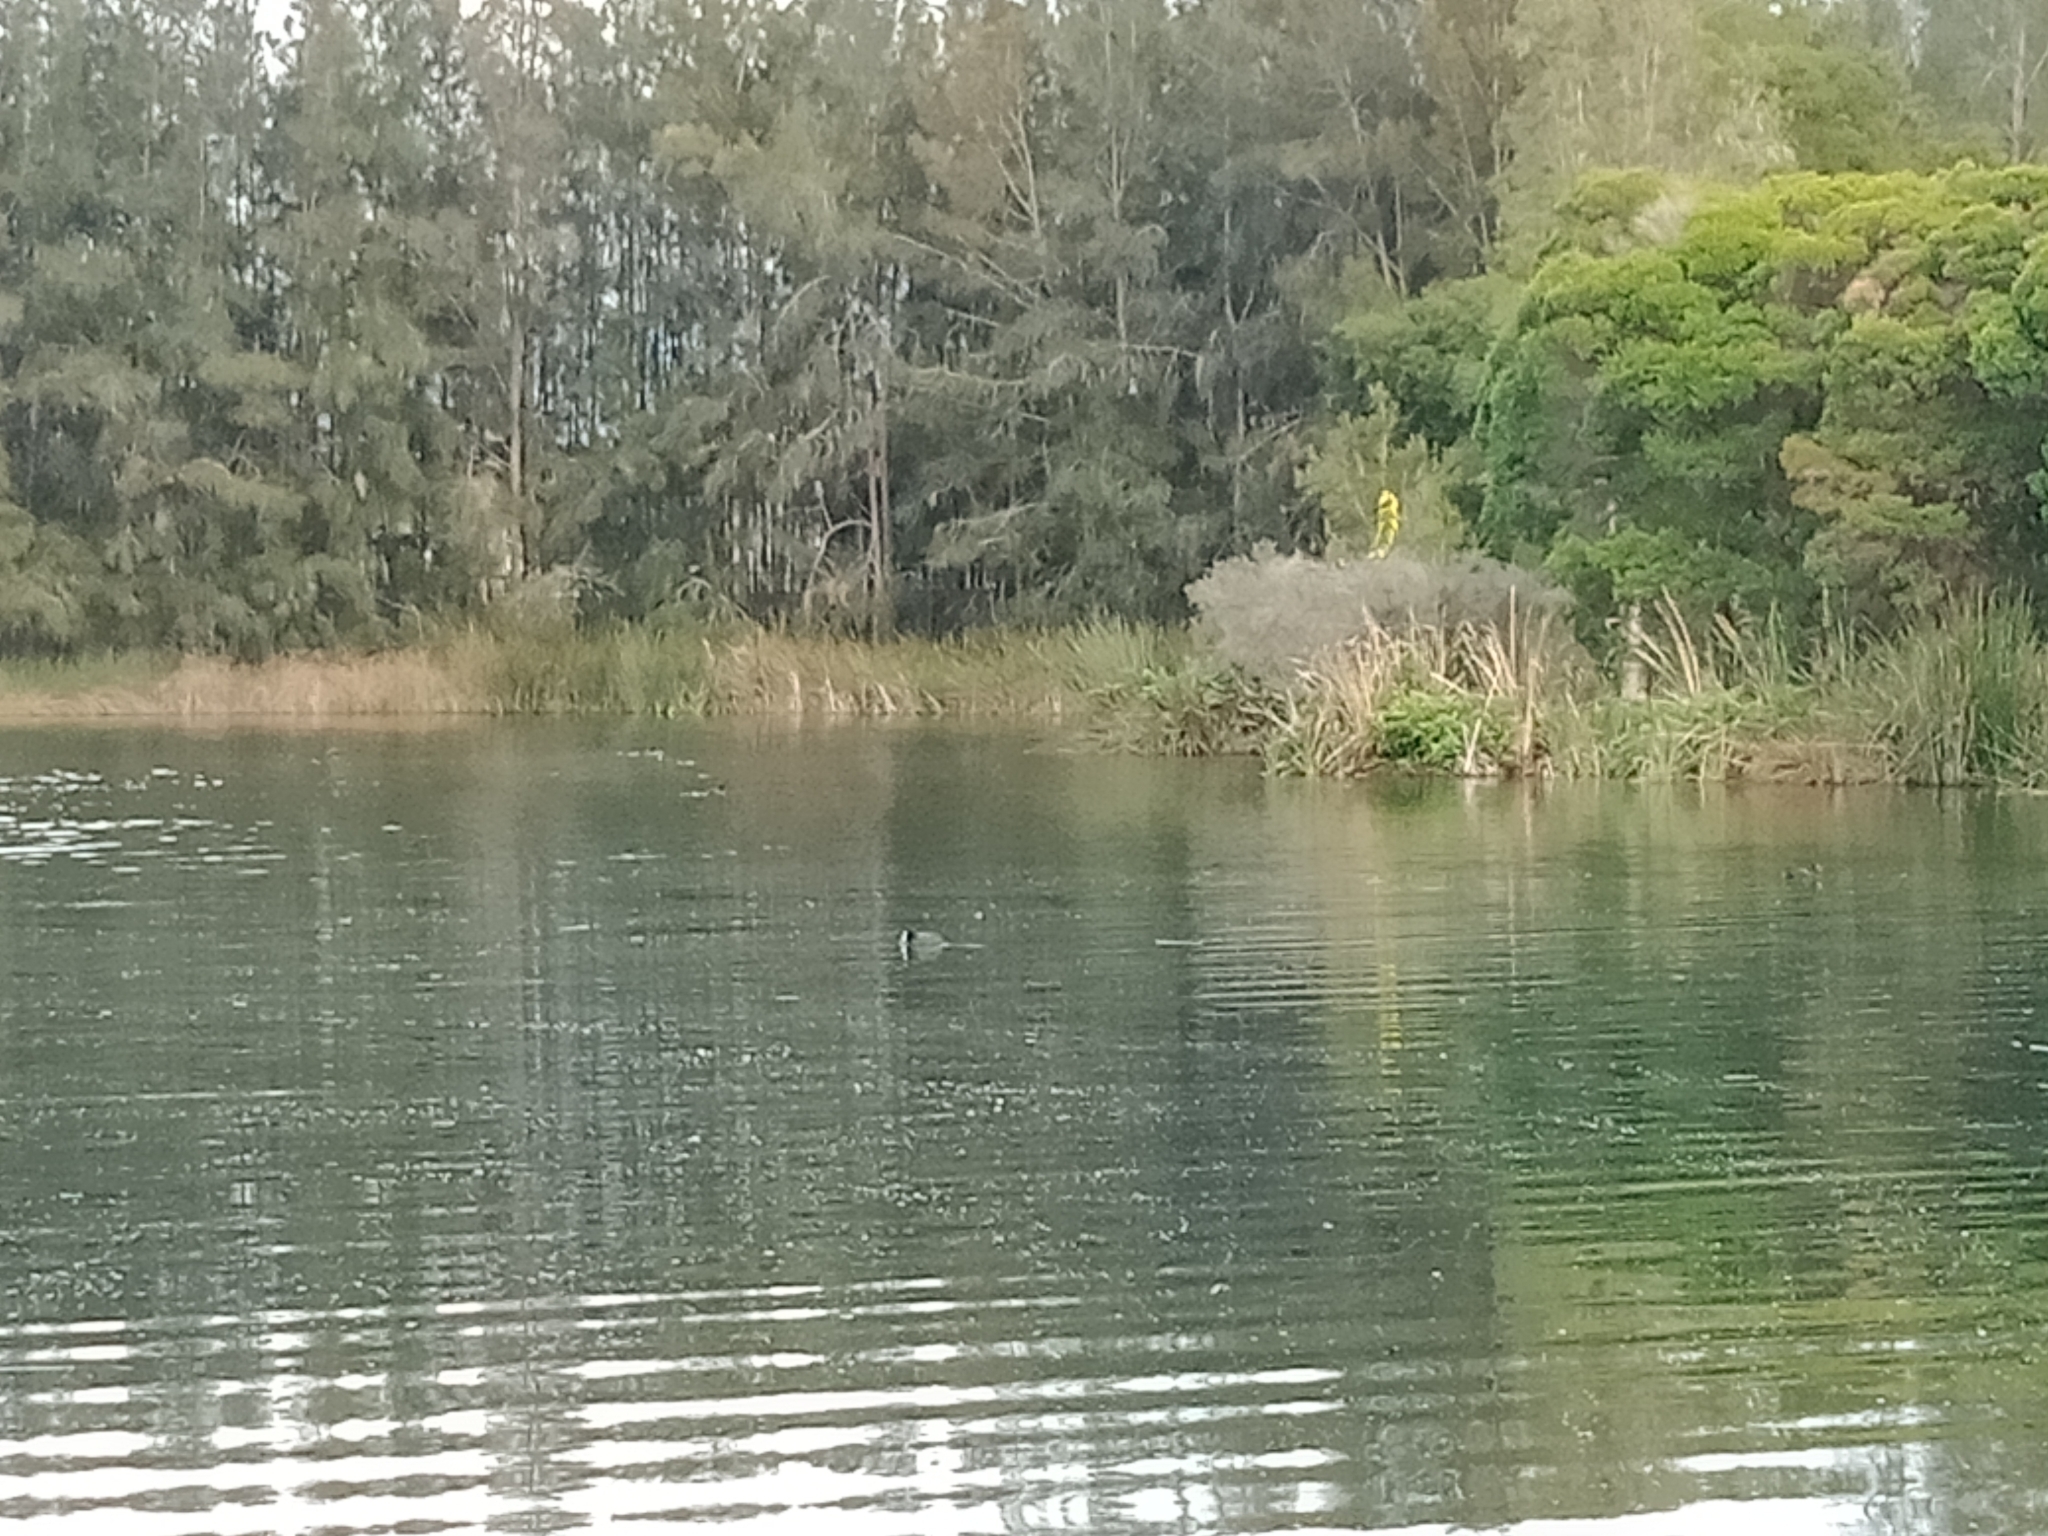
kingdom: Animalia
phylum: Chordata
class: Aves
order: Gruiformes
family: Rallidae
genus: Fulica
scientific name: Fulica atra
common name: Eurasian coot
